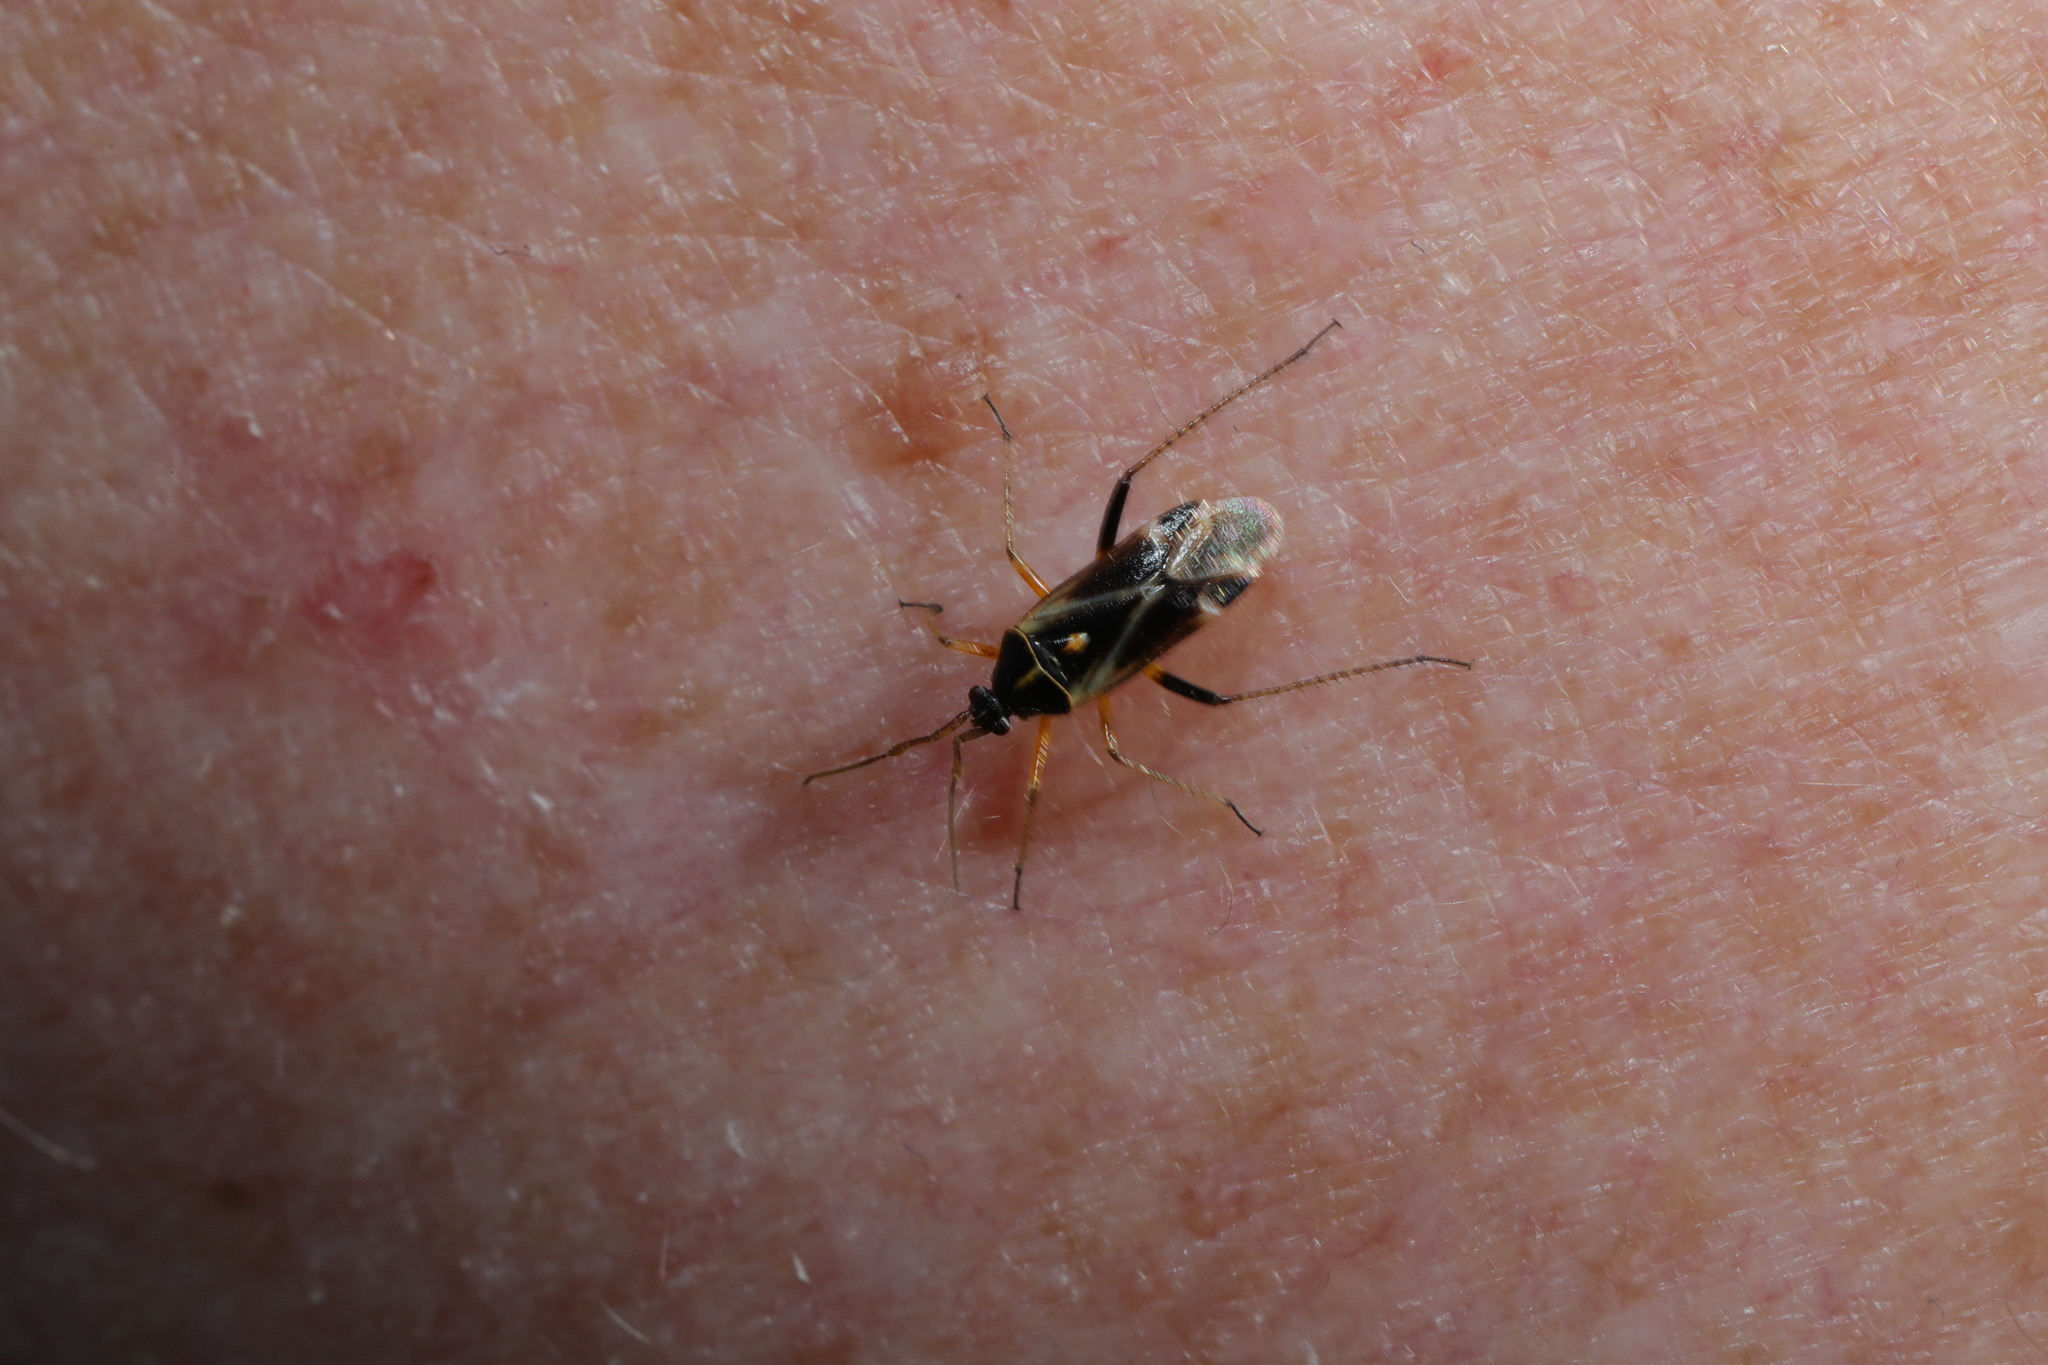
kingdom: Animalia
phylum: Arthropoda
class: Insecta
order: Hemiptera
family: Miridae
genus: Harpocera
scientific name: Harpocera thoracica
